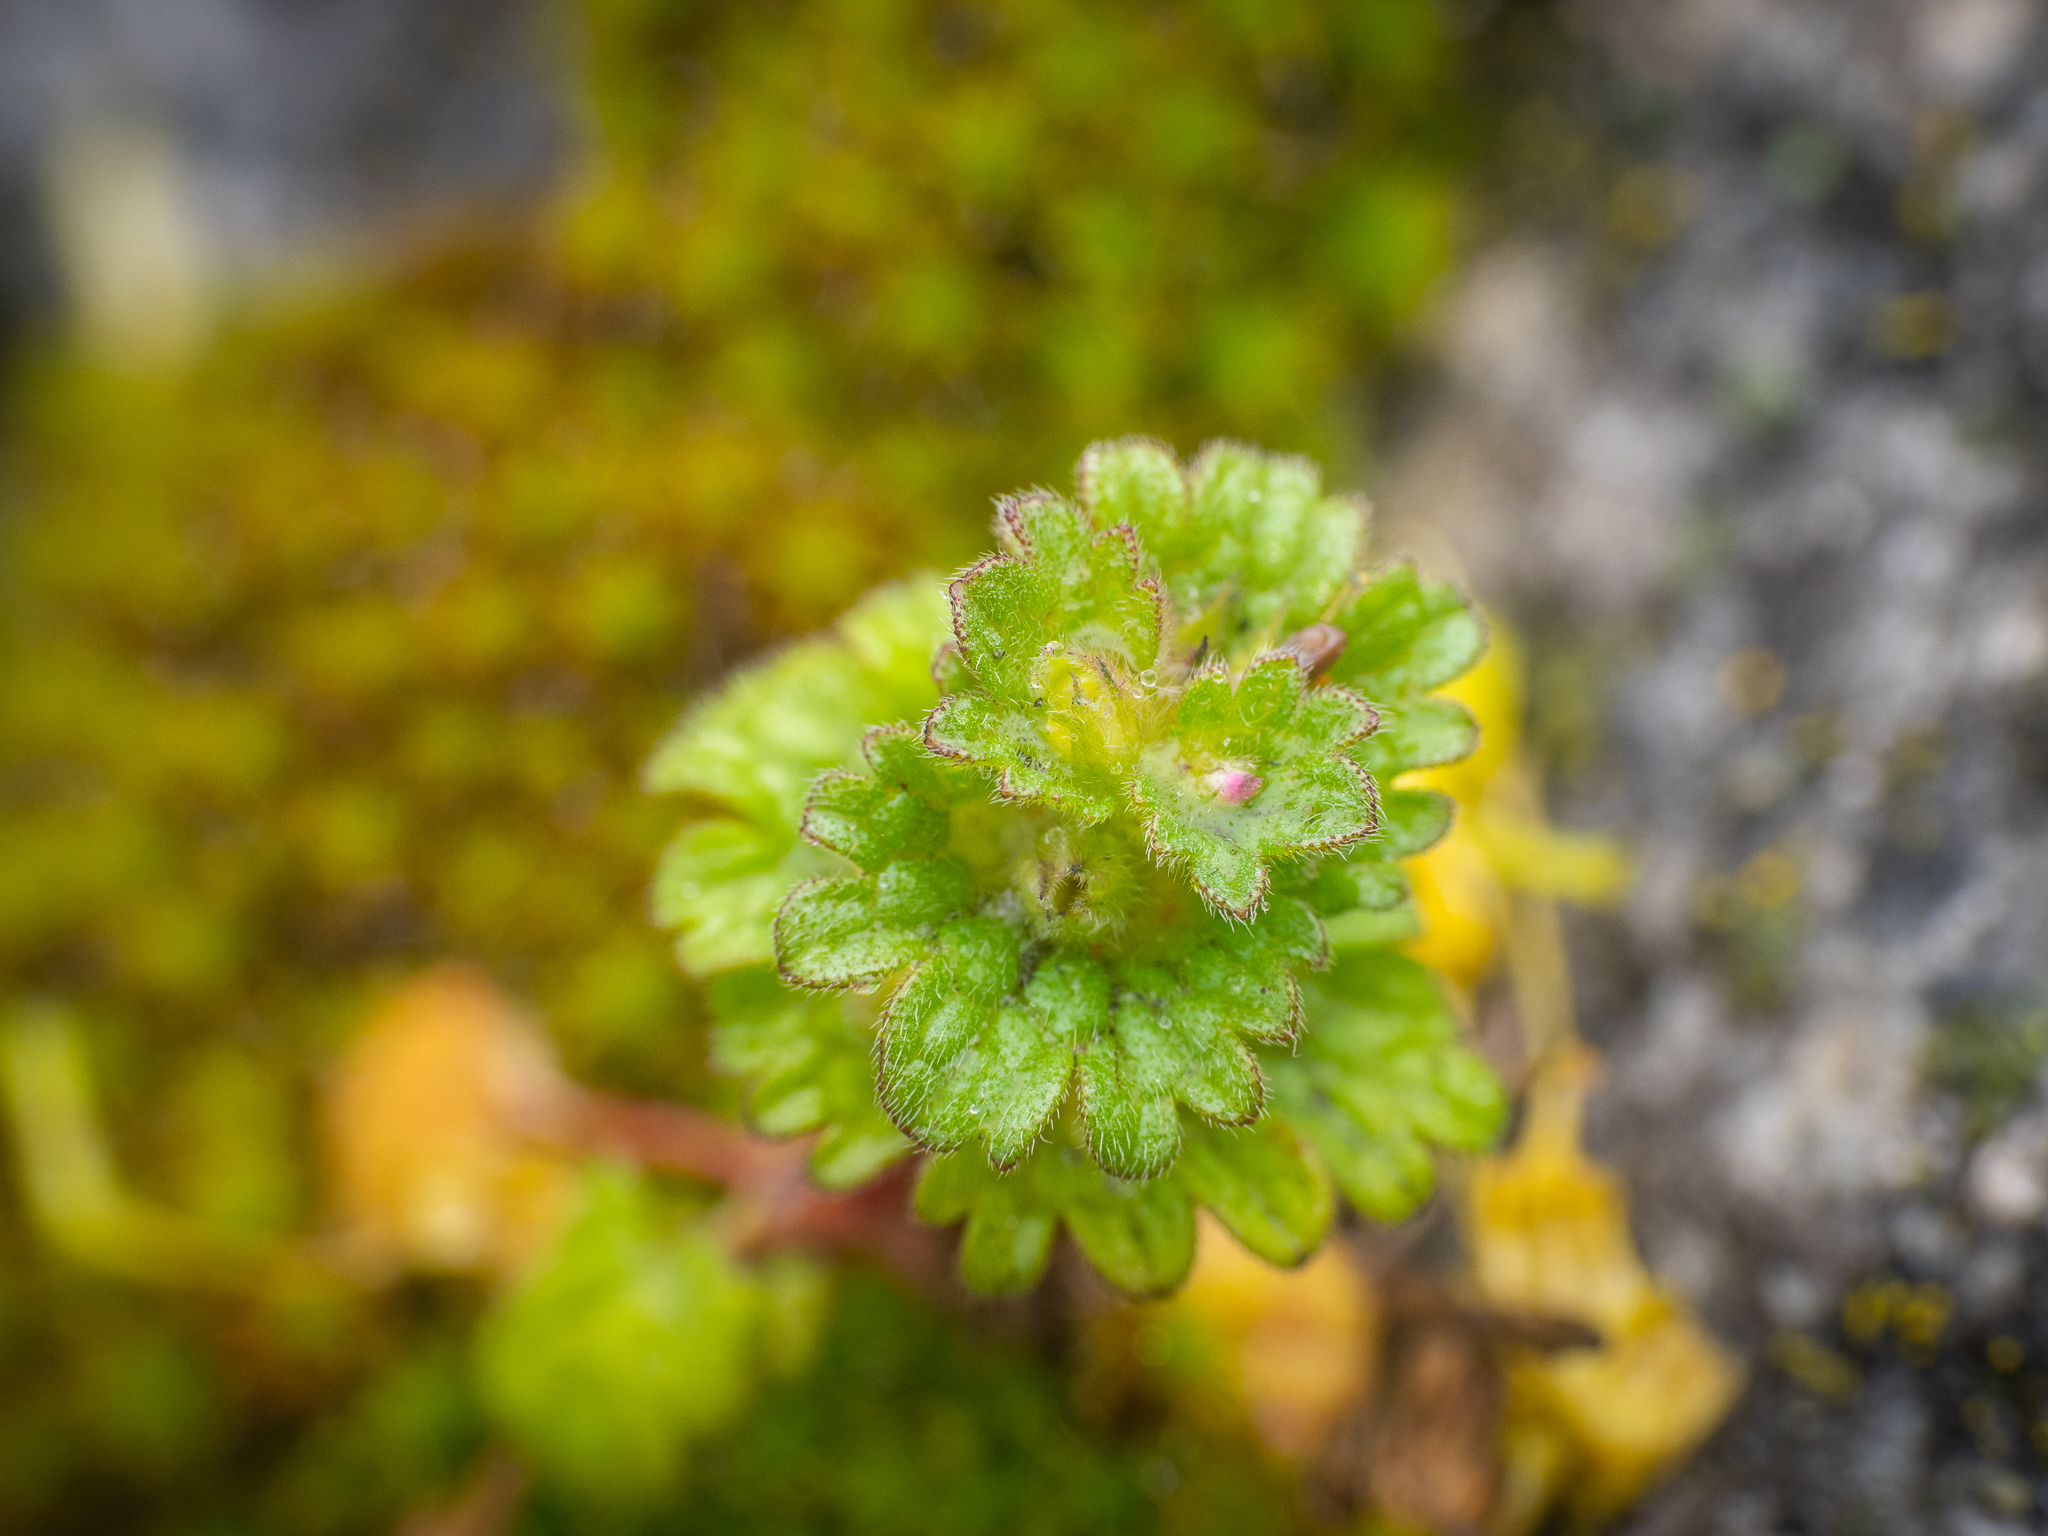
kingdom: Plantae
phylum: Tracheophyta
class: Magnoliopsida
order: Lamiales
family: Lamiaceae
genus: Lamium
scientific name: Lamium amplexicaule
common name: Henbit dead-nettle
